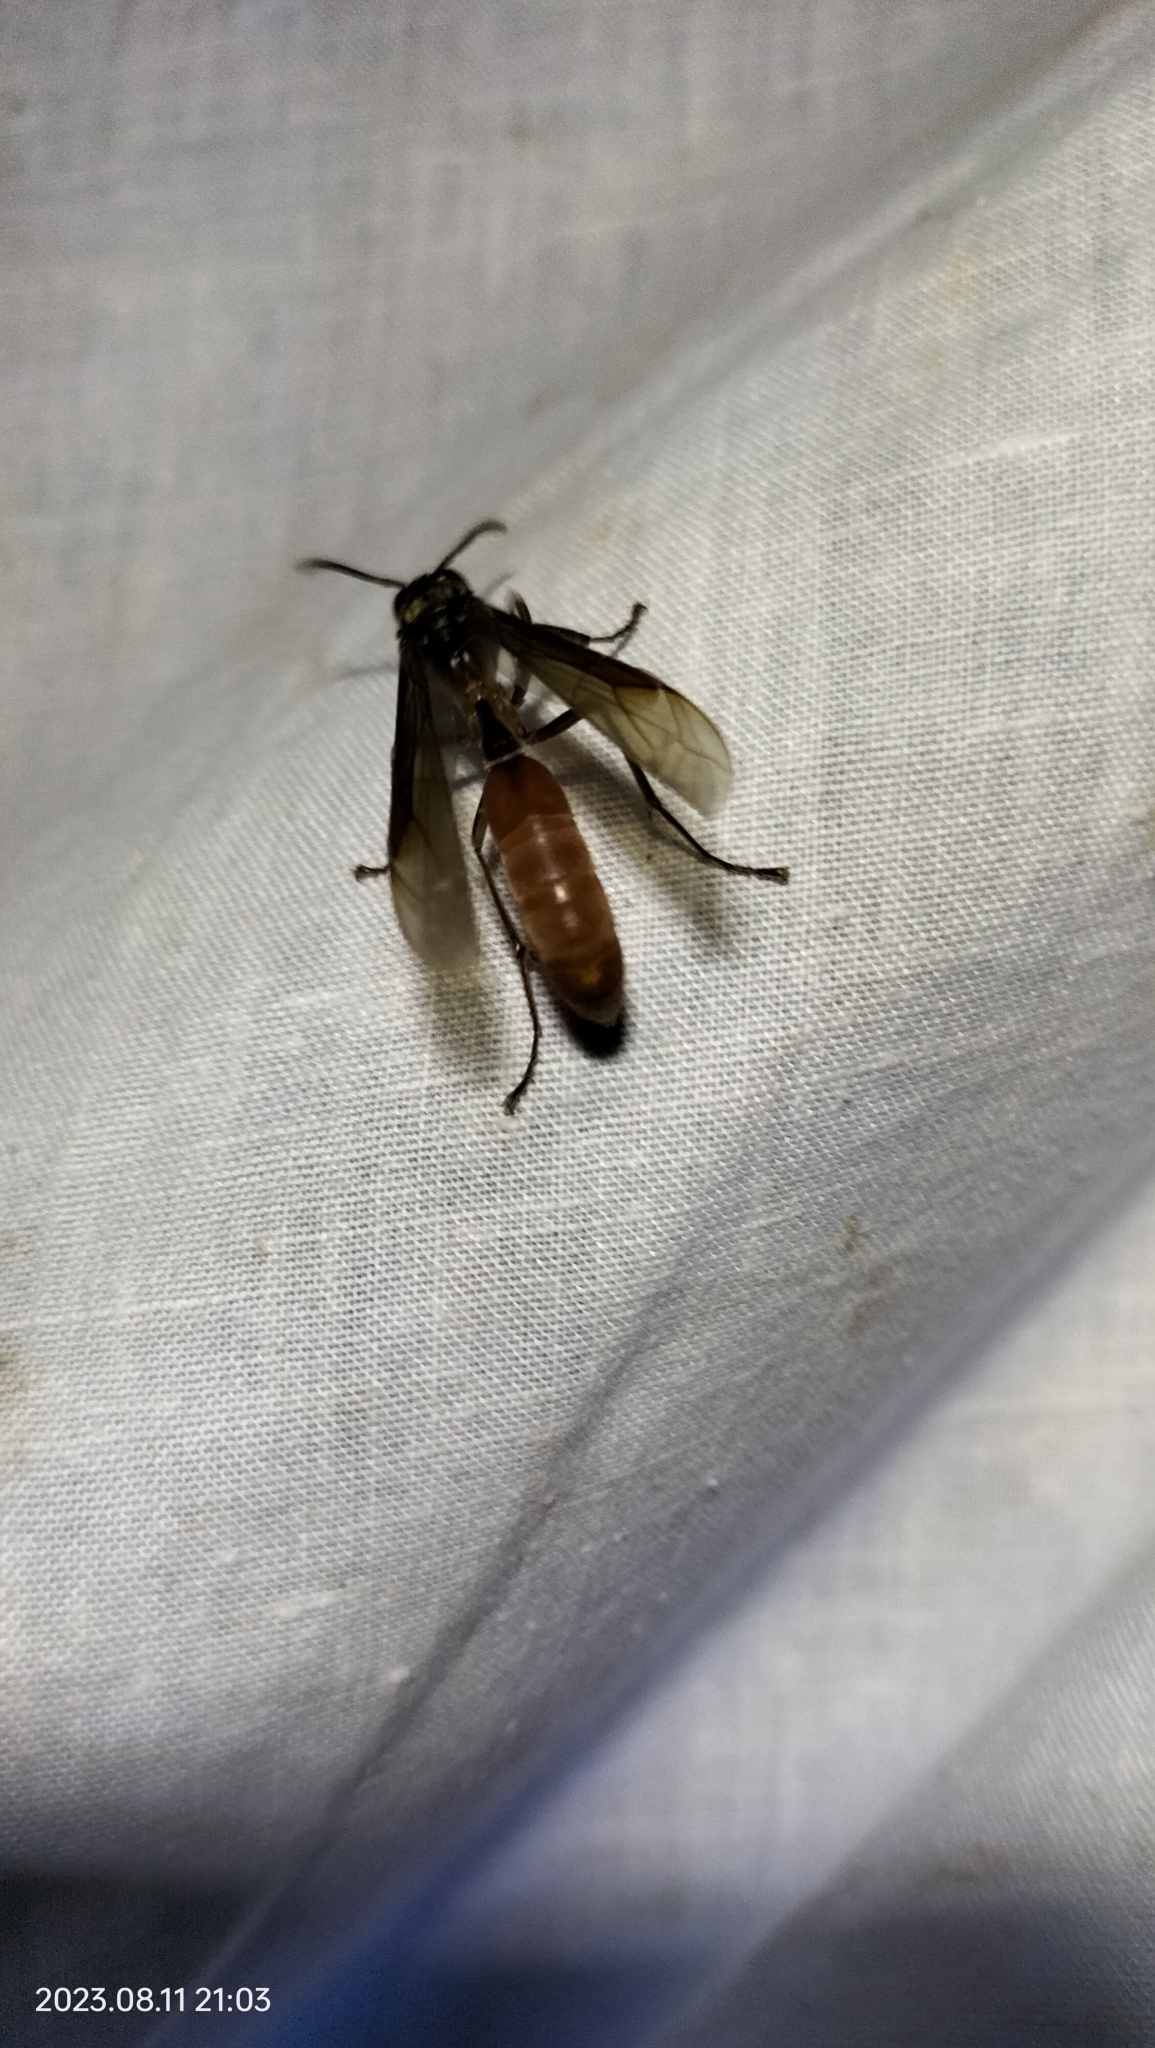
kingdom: Animalia
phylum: Arthropoda
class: Insecta
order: Hymenoptera
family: Vespidae
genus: Apoica
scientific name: Apoica thoracica
